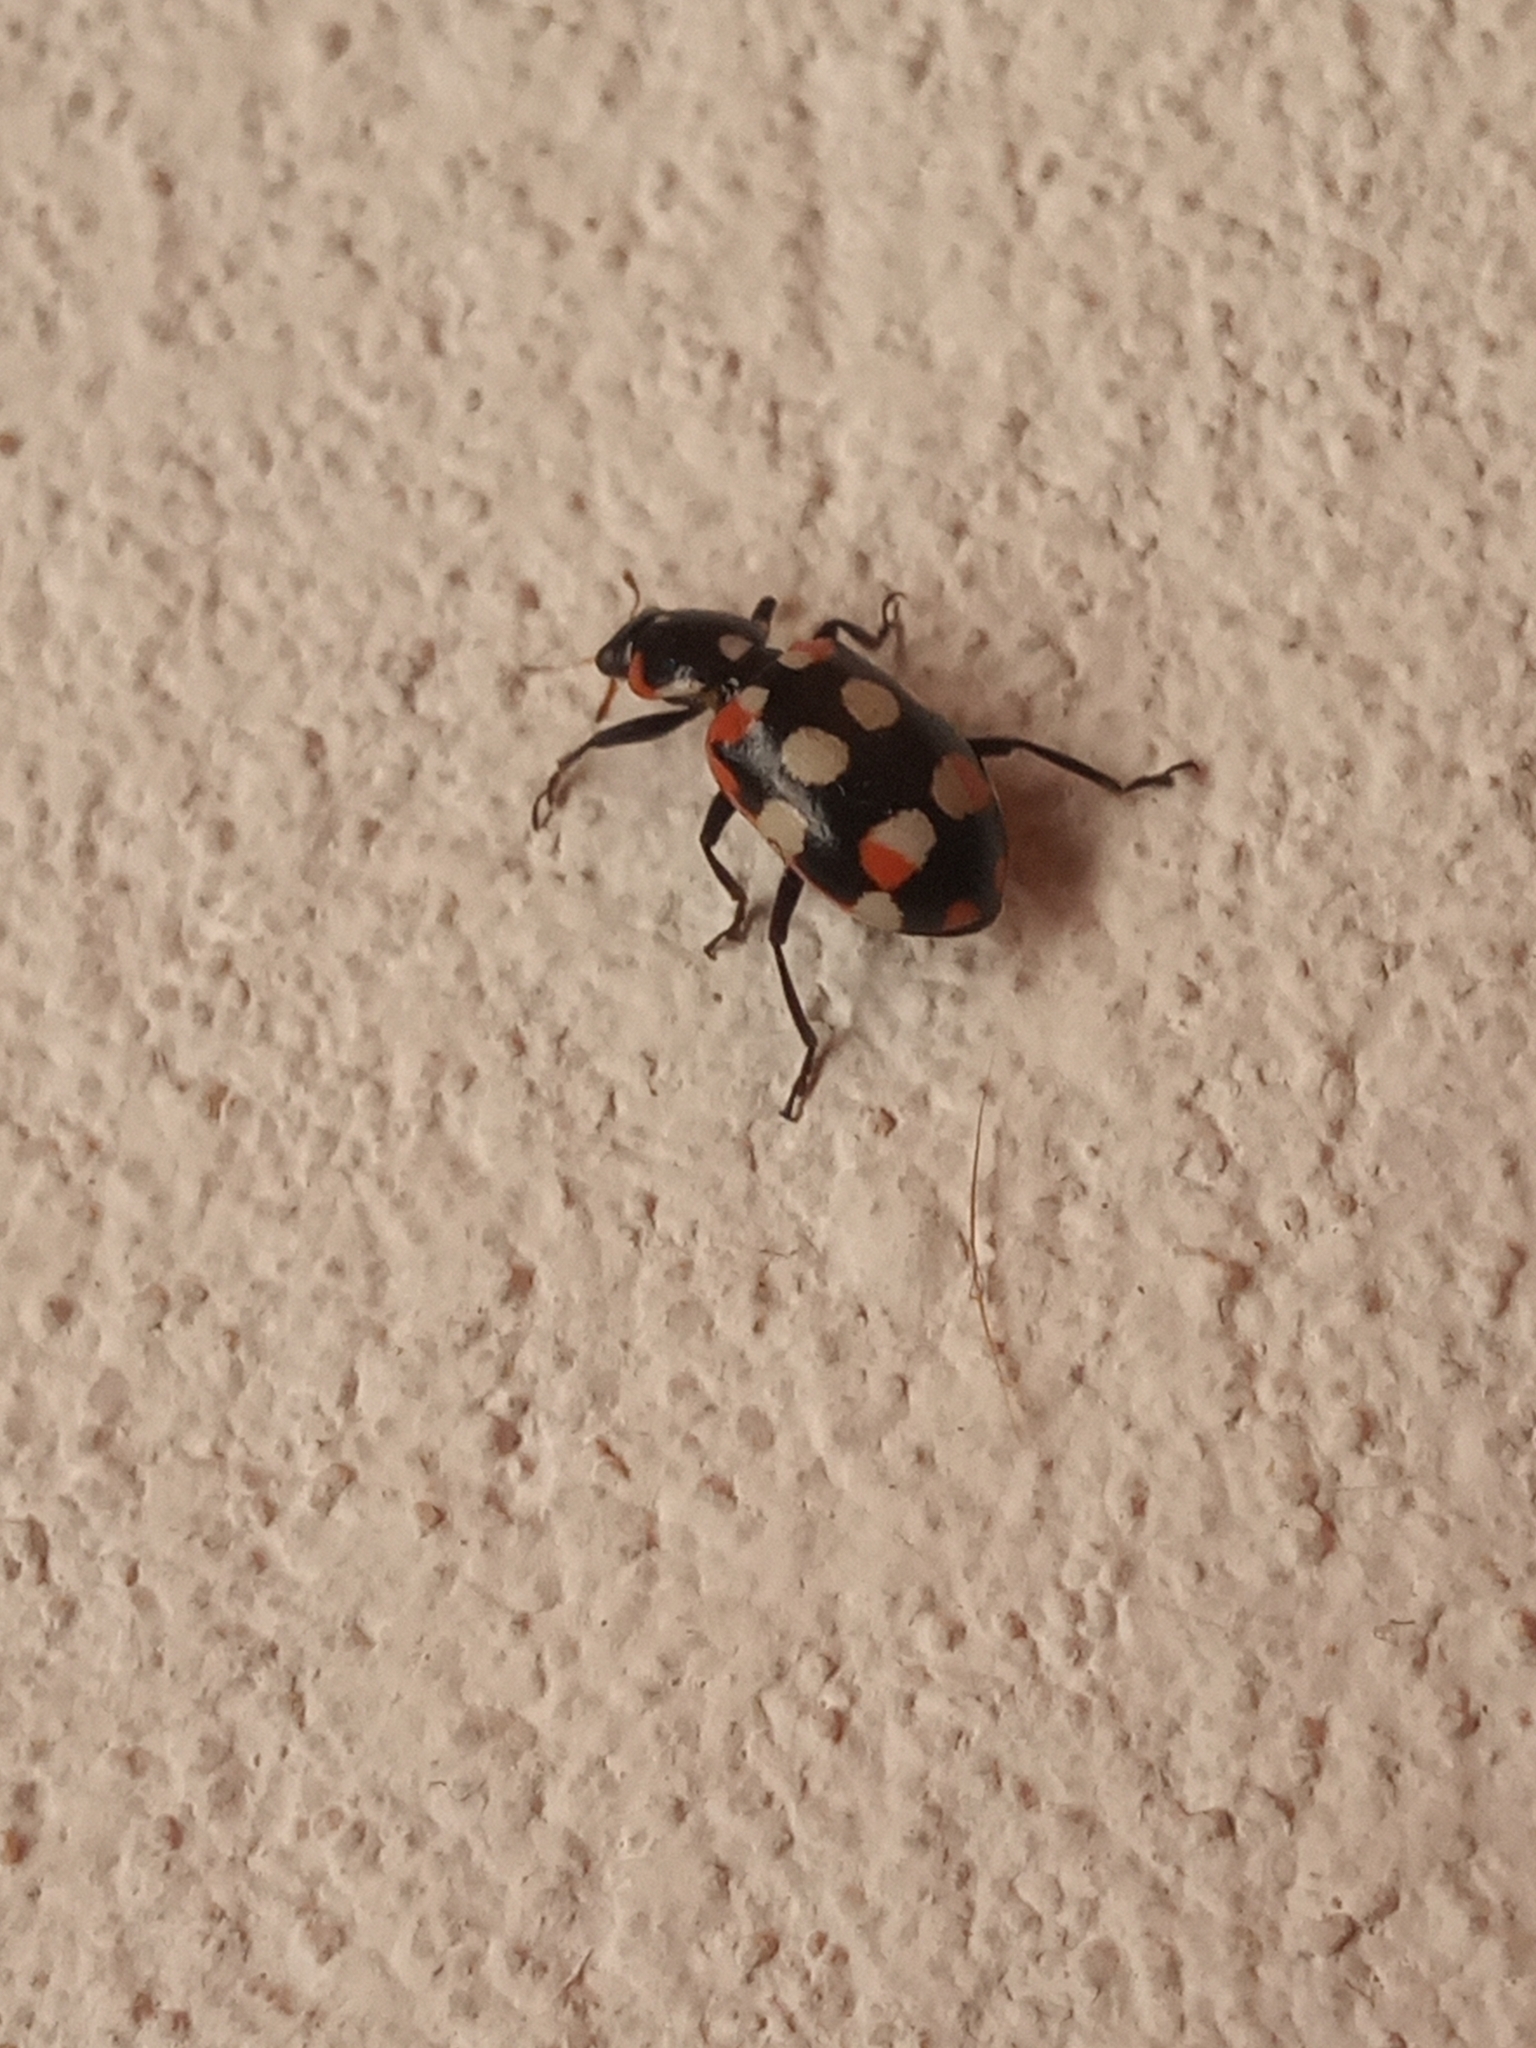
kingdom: Animalia
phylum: Arthropoda
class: Insecta
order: Coleoptera
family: Coccinellidae
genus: Eriopis
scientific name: Eriopis connexa
